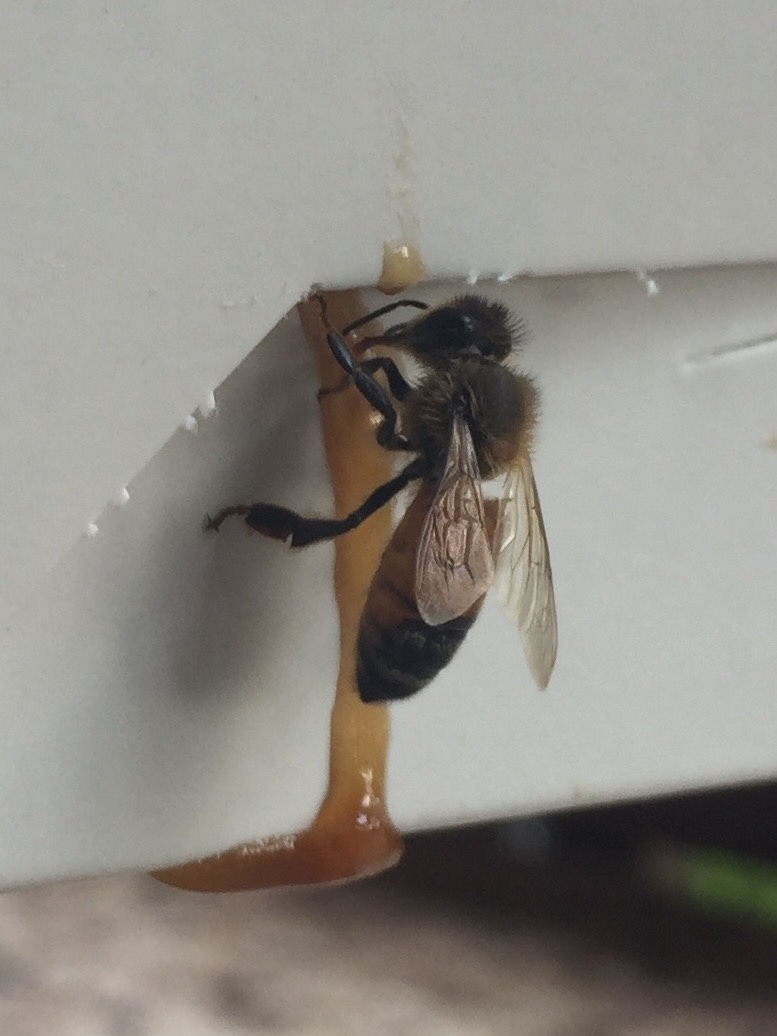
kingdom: Animalia
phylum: Arthropoda
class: Insecta
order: Hymenoptera
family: Apidae
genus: Apis
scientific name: Apis mellifera
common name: Honey bee
